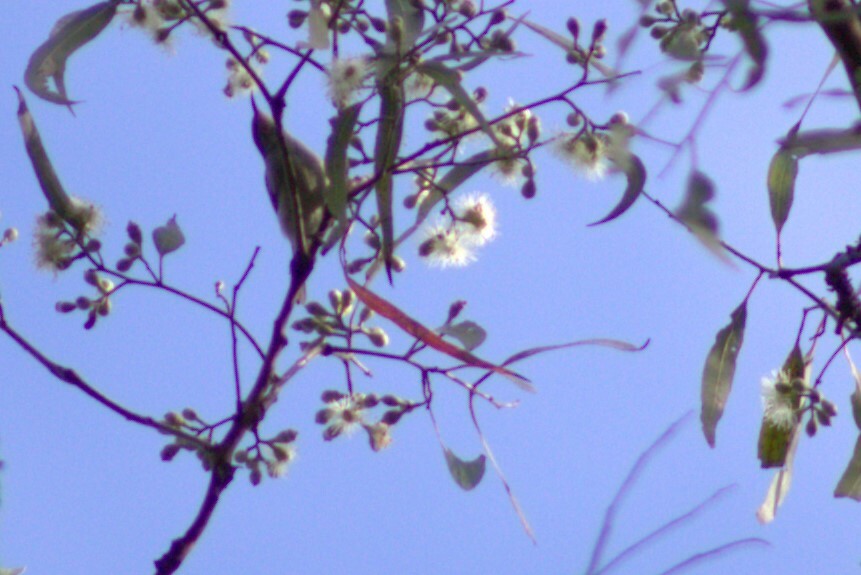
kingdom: Animalia
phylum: Chordata
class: Aves
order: Passeriformes
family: Meliphagidae
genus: Myzomela
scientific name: Myzomela sanguinolenta
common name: Scarlet myzomela
